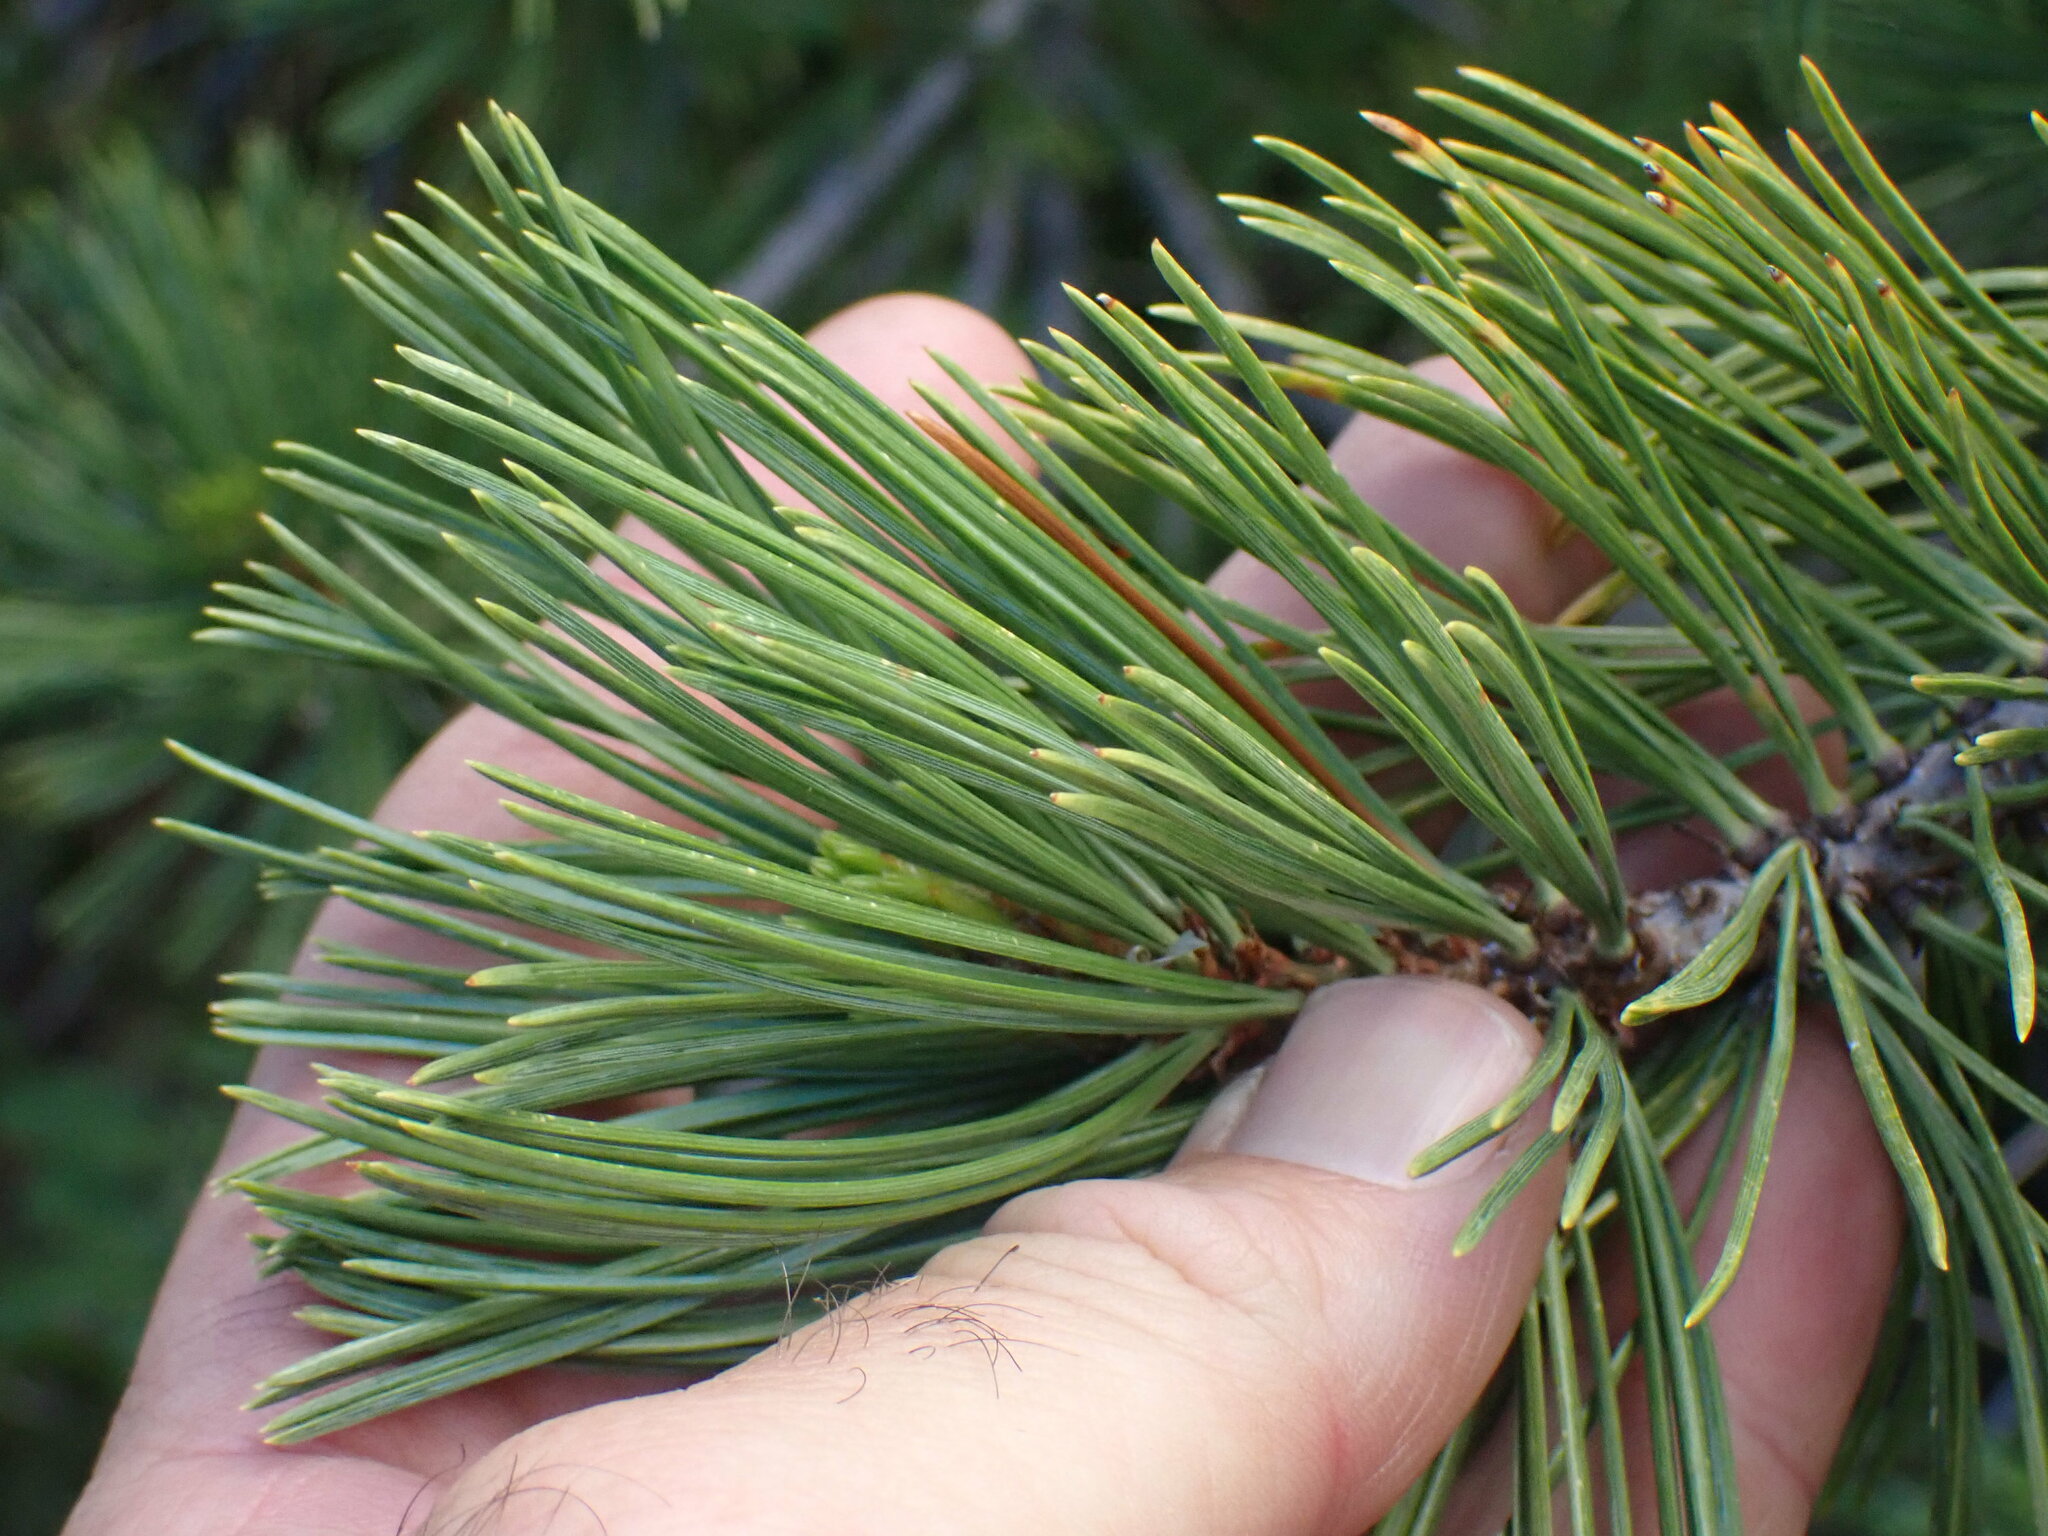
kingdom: Plantae
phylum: Tracheophyta
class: Pinopsida
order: Pinales
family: Pinaceae
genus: Pinus
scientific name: Pinus contorta
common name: Lodgepole pine
